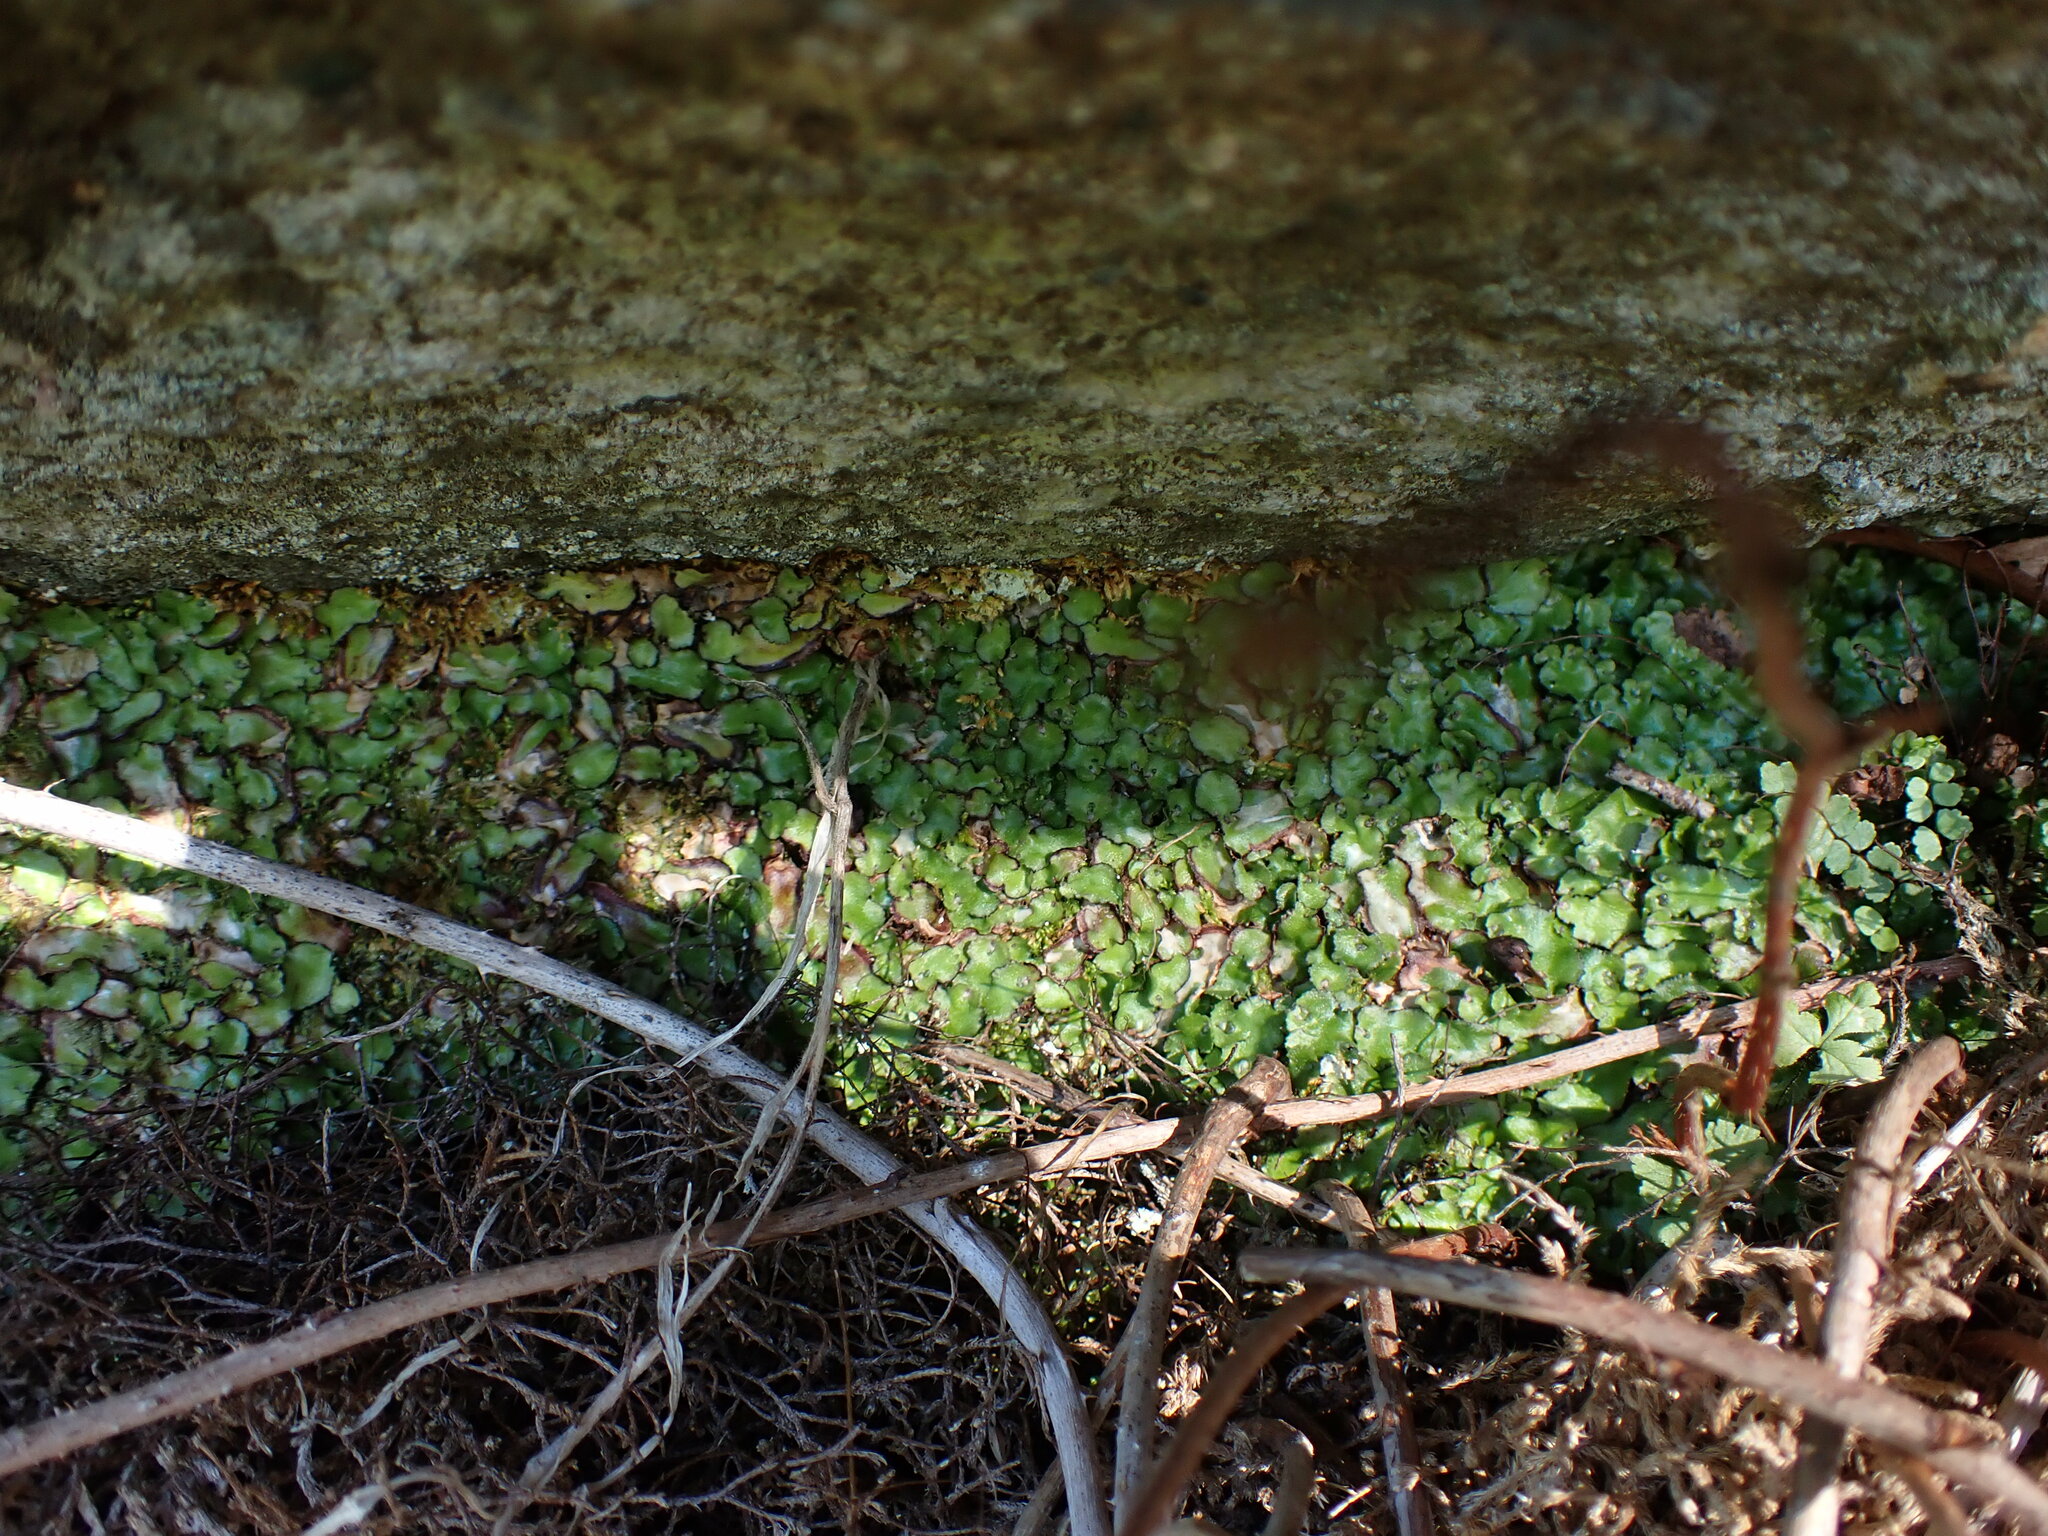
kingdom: Plantae
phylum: Marchantiophyta
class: Marchantiopsida
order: Marchantiales
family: Aytoniaceae
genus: Reboulia
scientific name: Reboulia hemisphaerica
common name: Purple-margined liverwort
